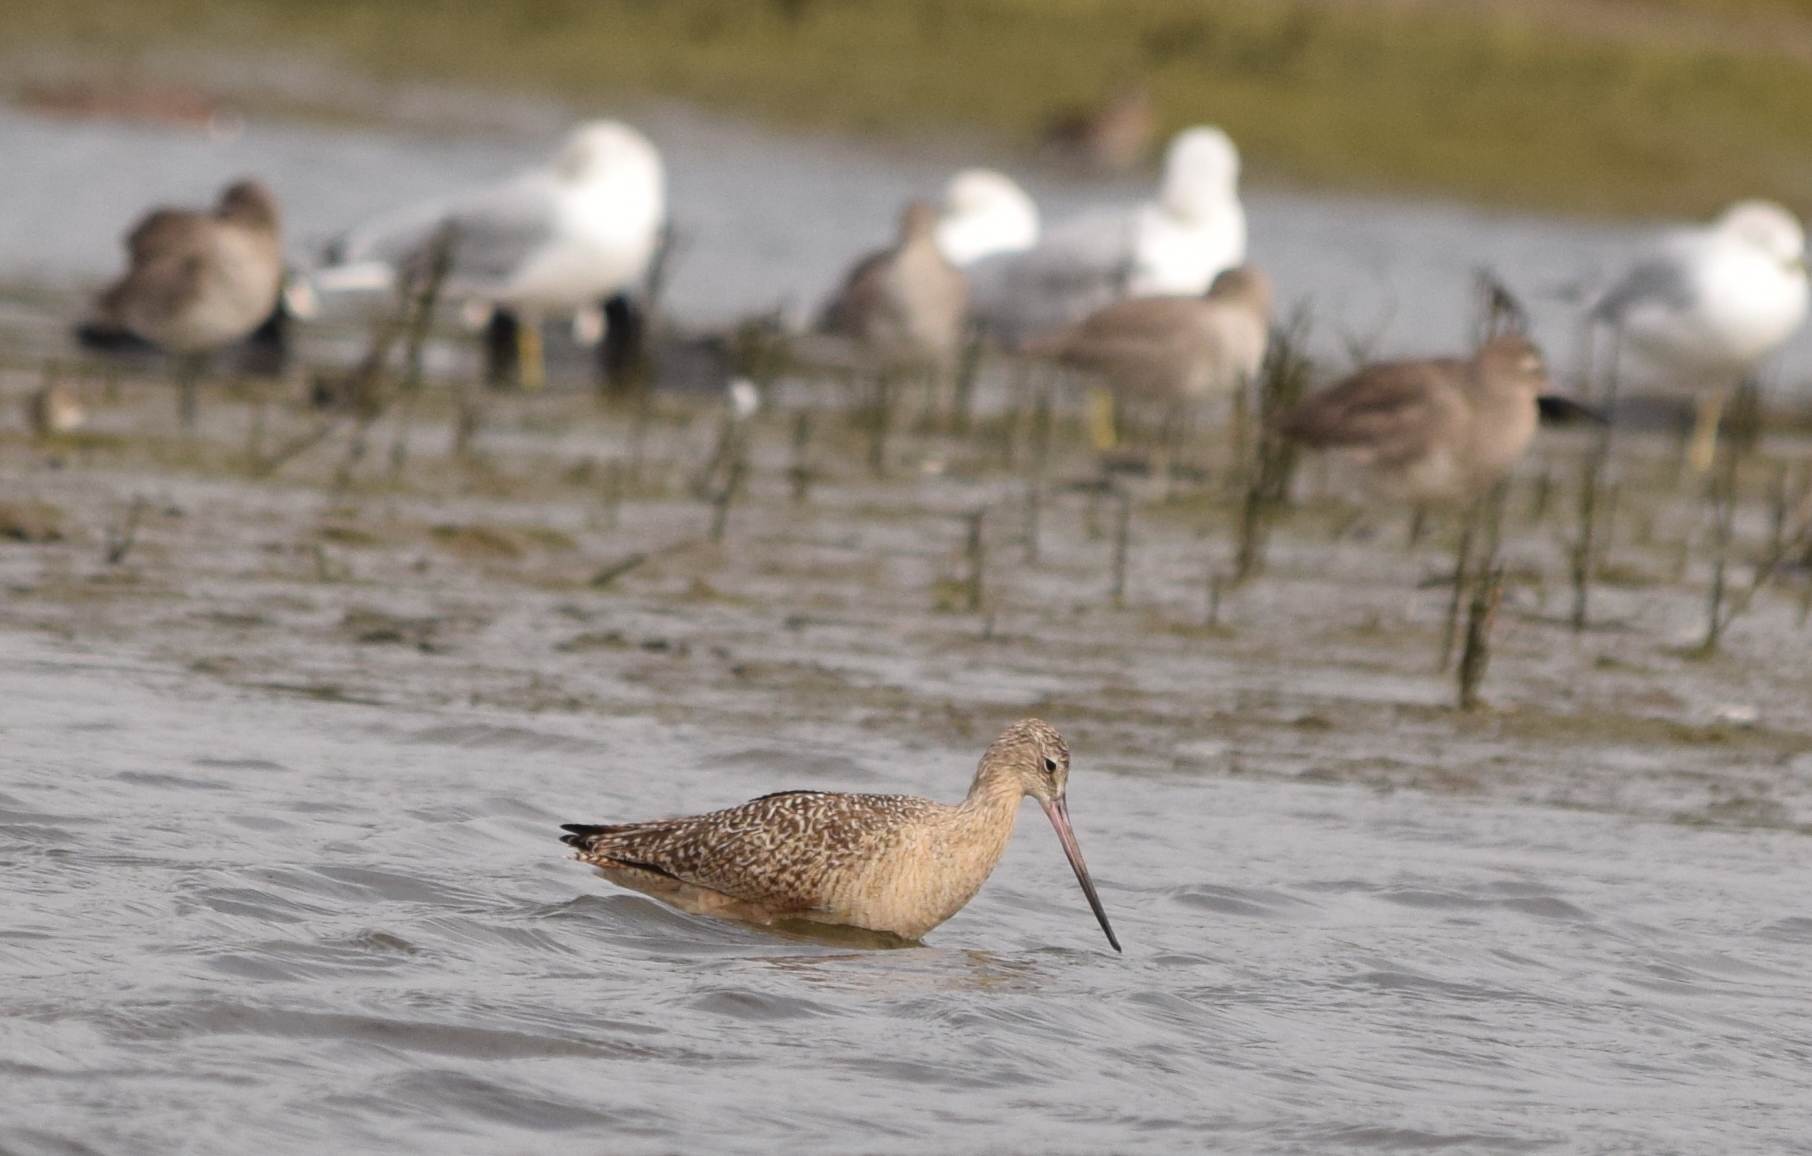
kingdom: Animalia
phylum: Chordata
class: Aves
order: Charadriiformes
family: Scolopacidae
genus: Limosa
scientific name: Limosa fedoa
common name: Marbled godwit
